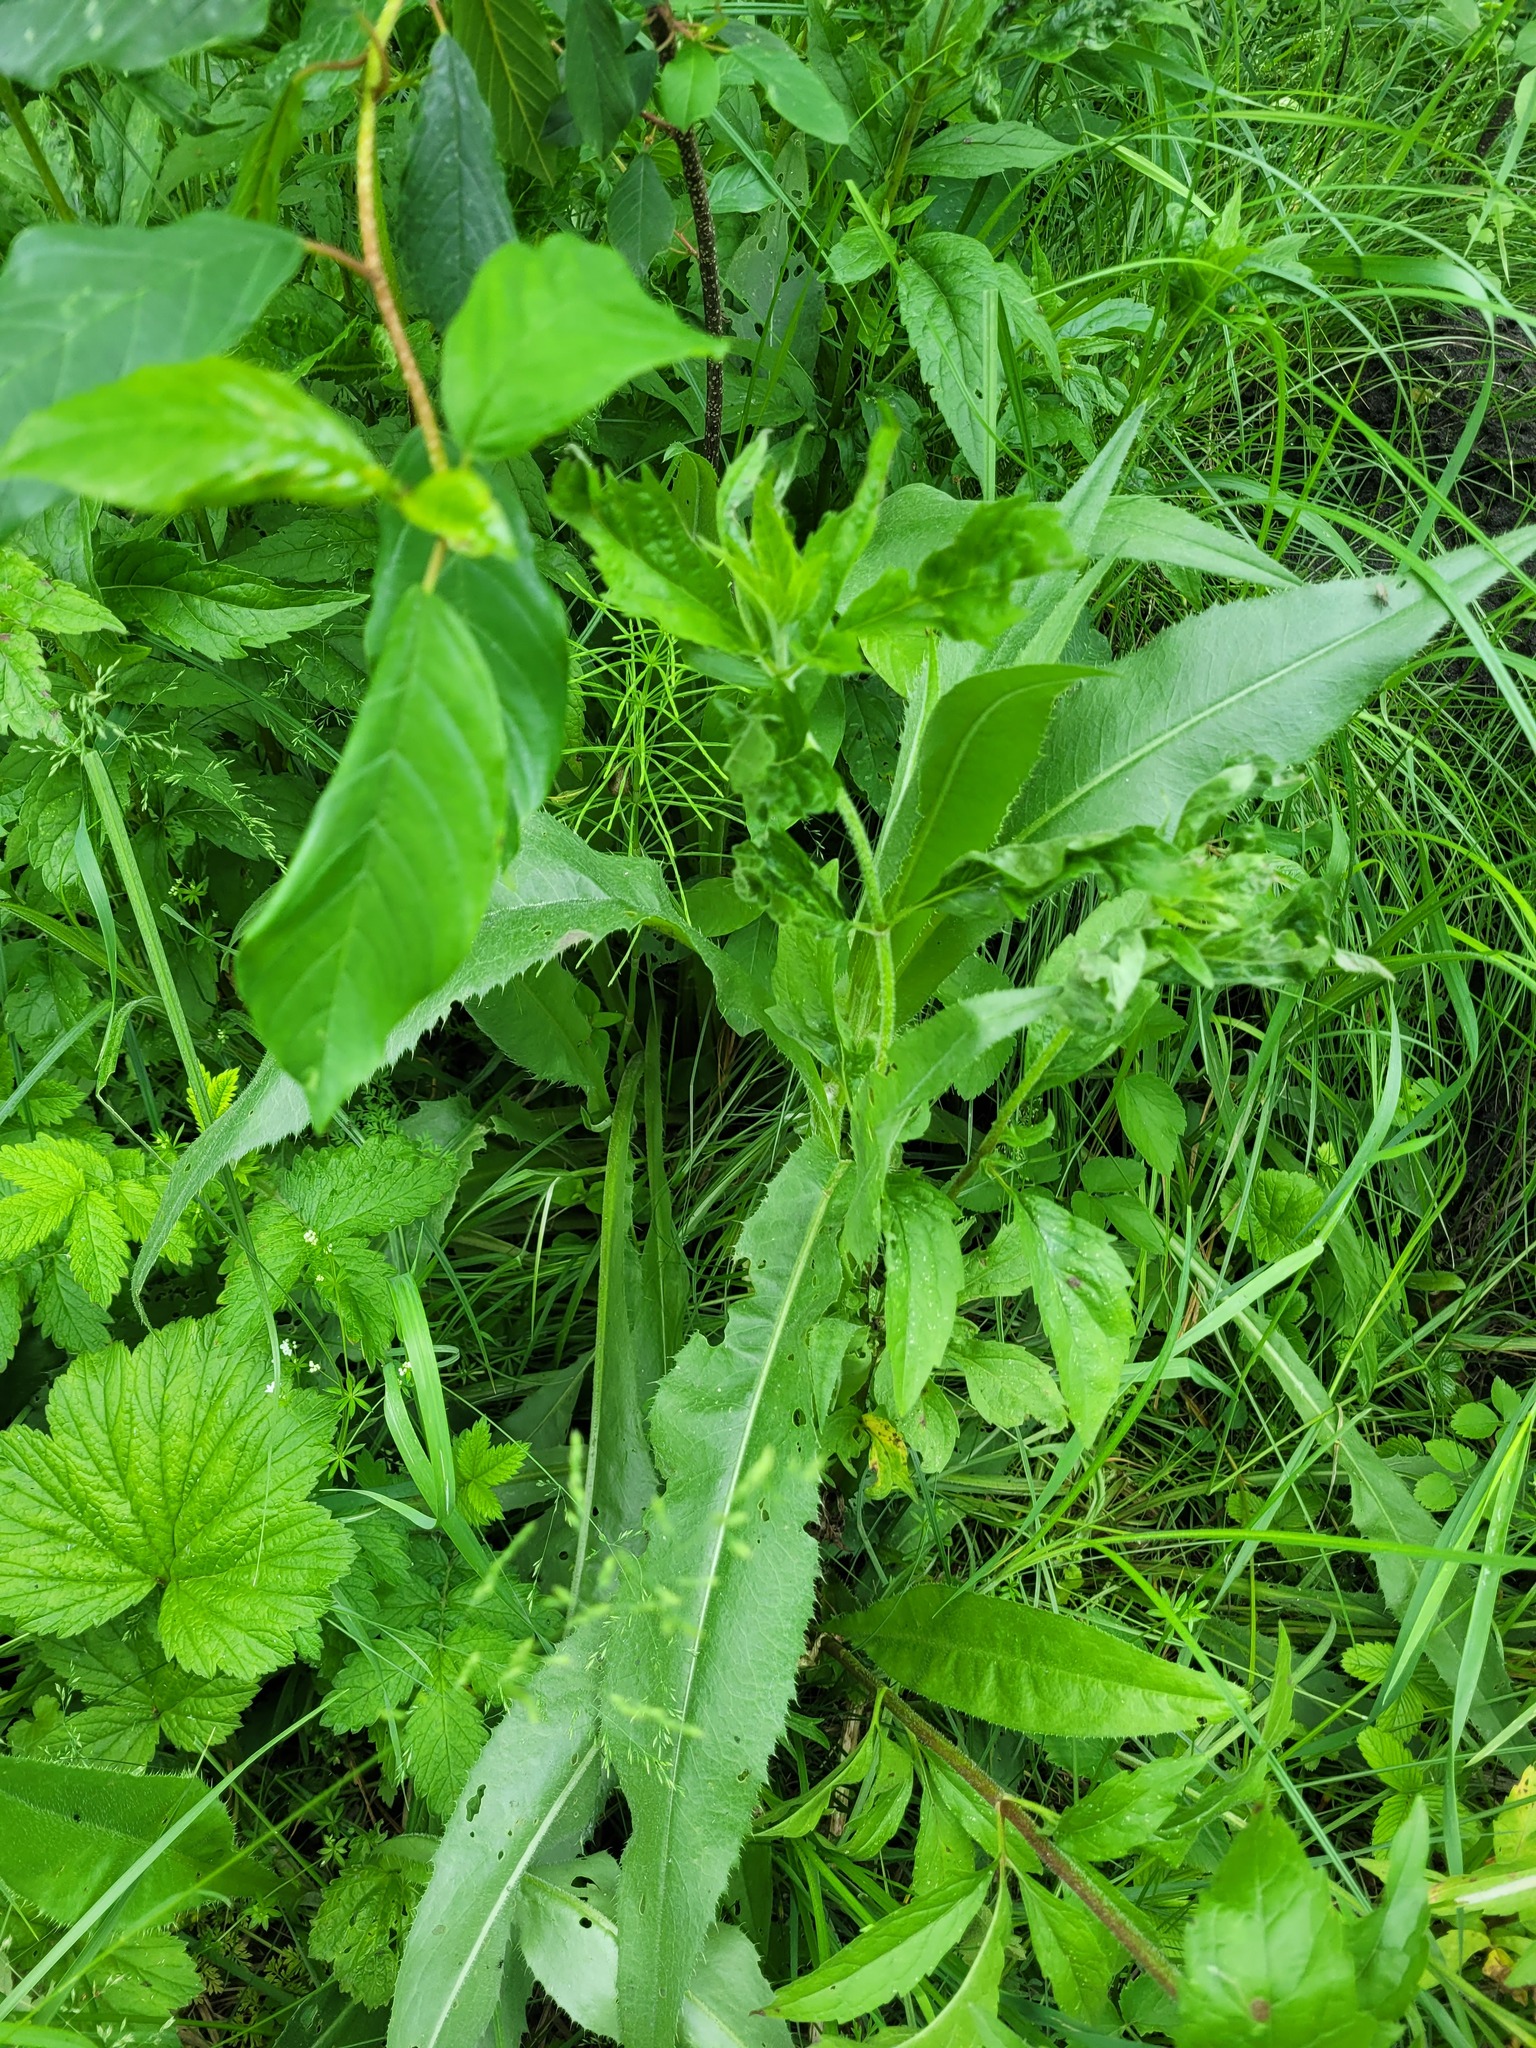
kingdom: Plantae
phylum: Tracheophyta
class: Magnoliopsida
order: Asterales
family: Asteraceae
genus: Cirsium
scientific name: Cirsium canum
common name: Queen anne's thistle
